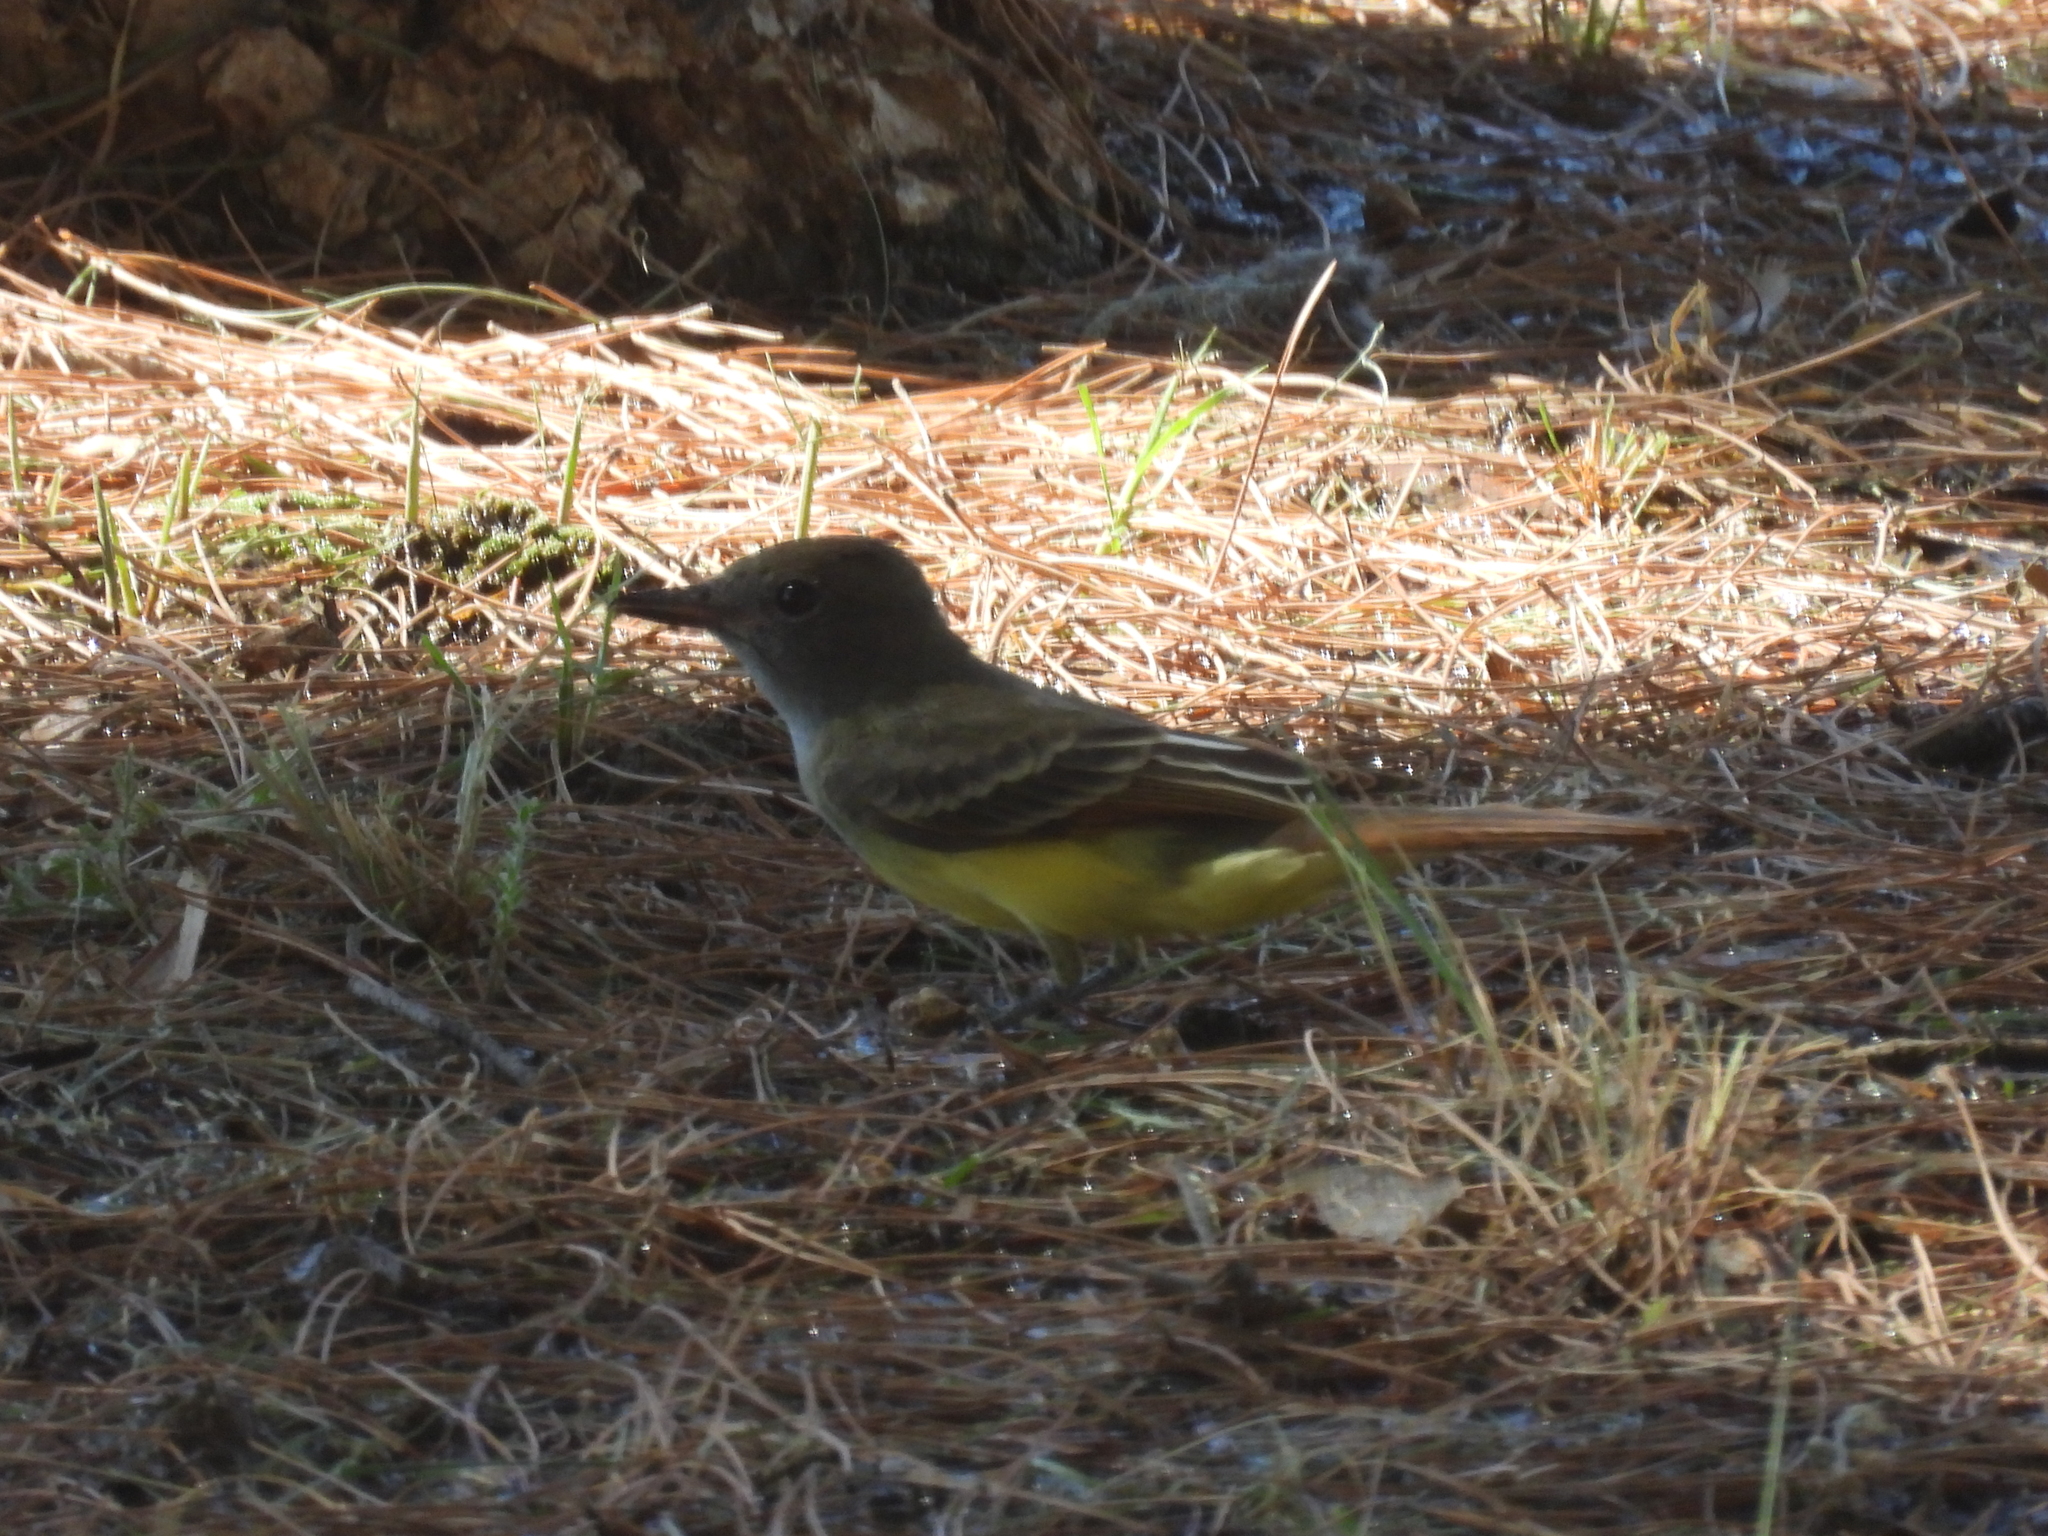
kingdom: Animalia
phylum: Chordata
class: Aves
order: Passeriformes
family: Tyrannidae
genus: Myiarchus
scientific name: Myiarchus crinitus
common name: Great crested flycatcher
